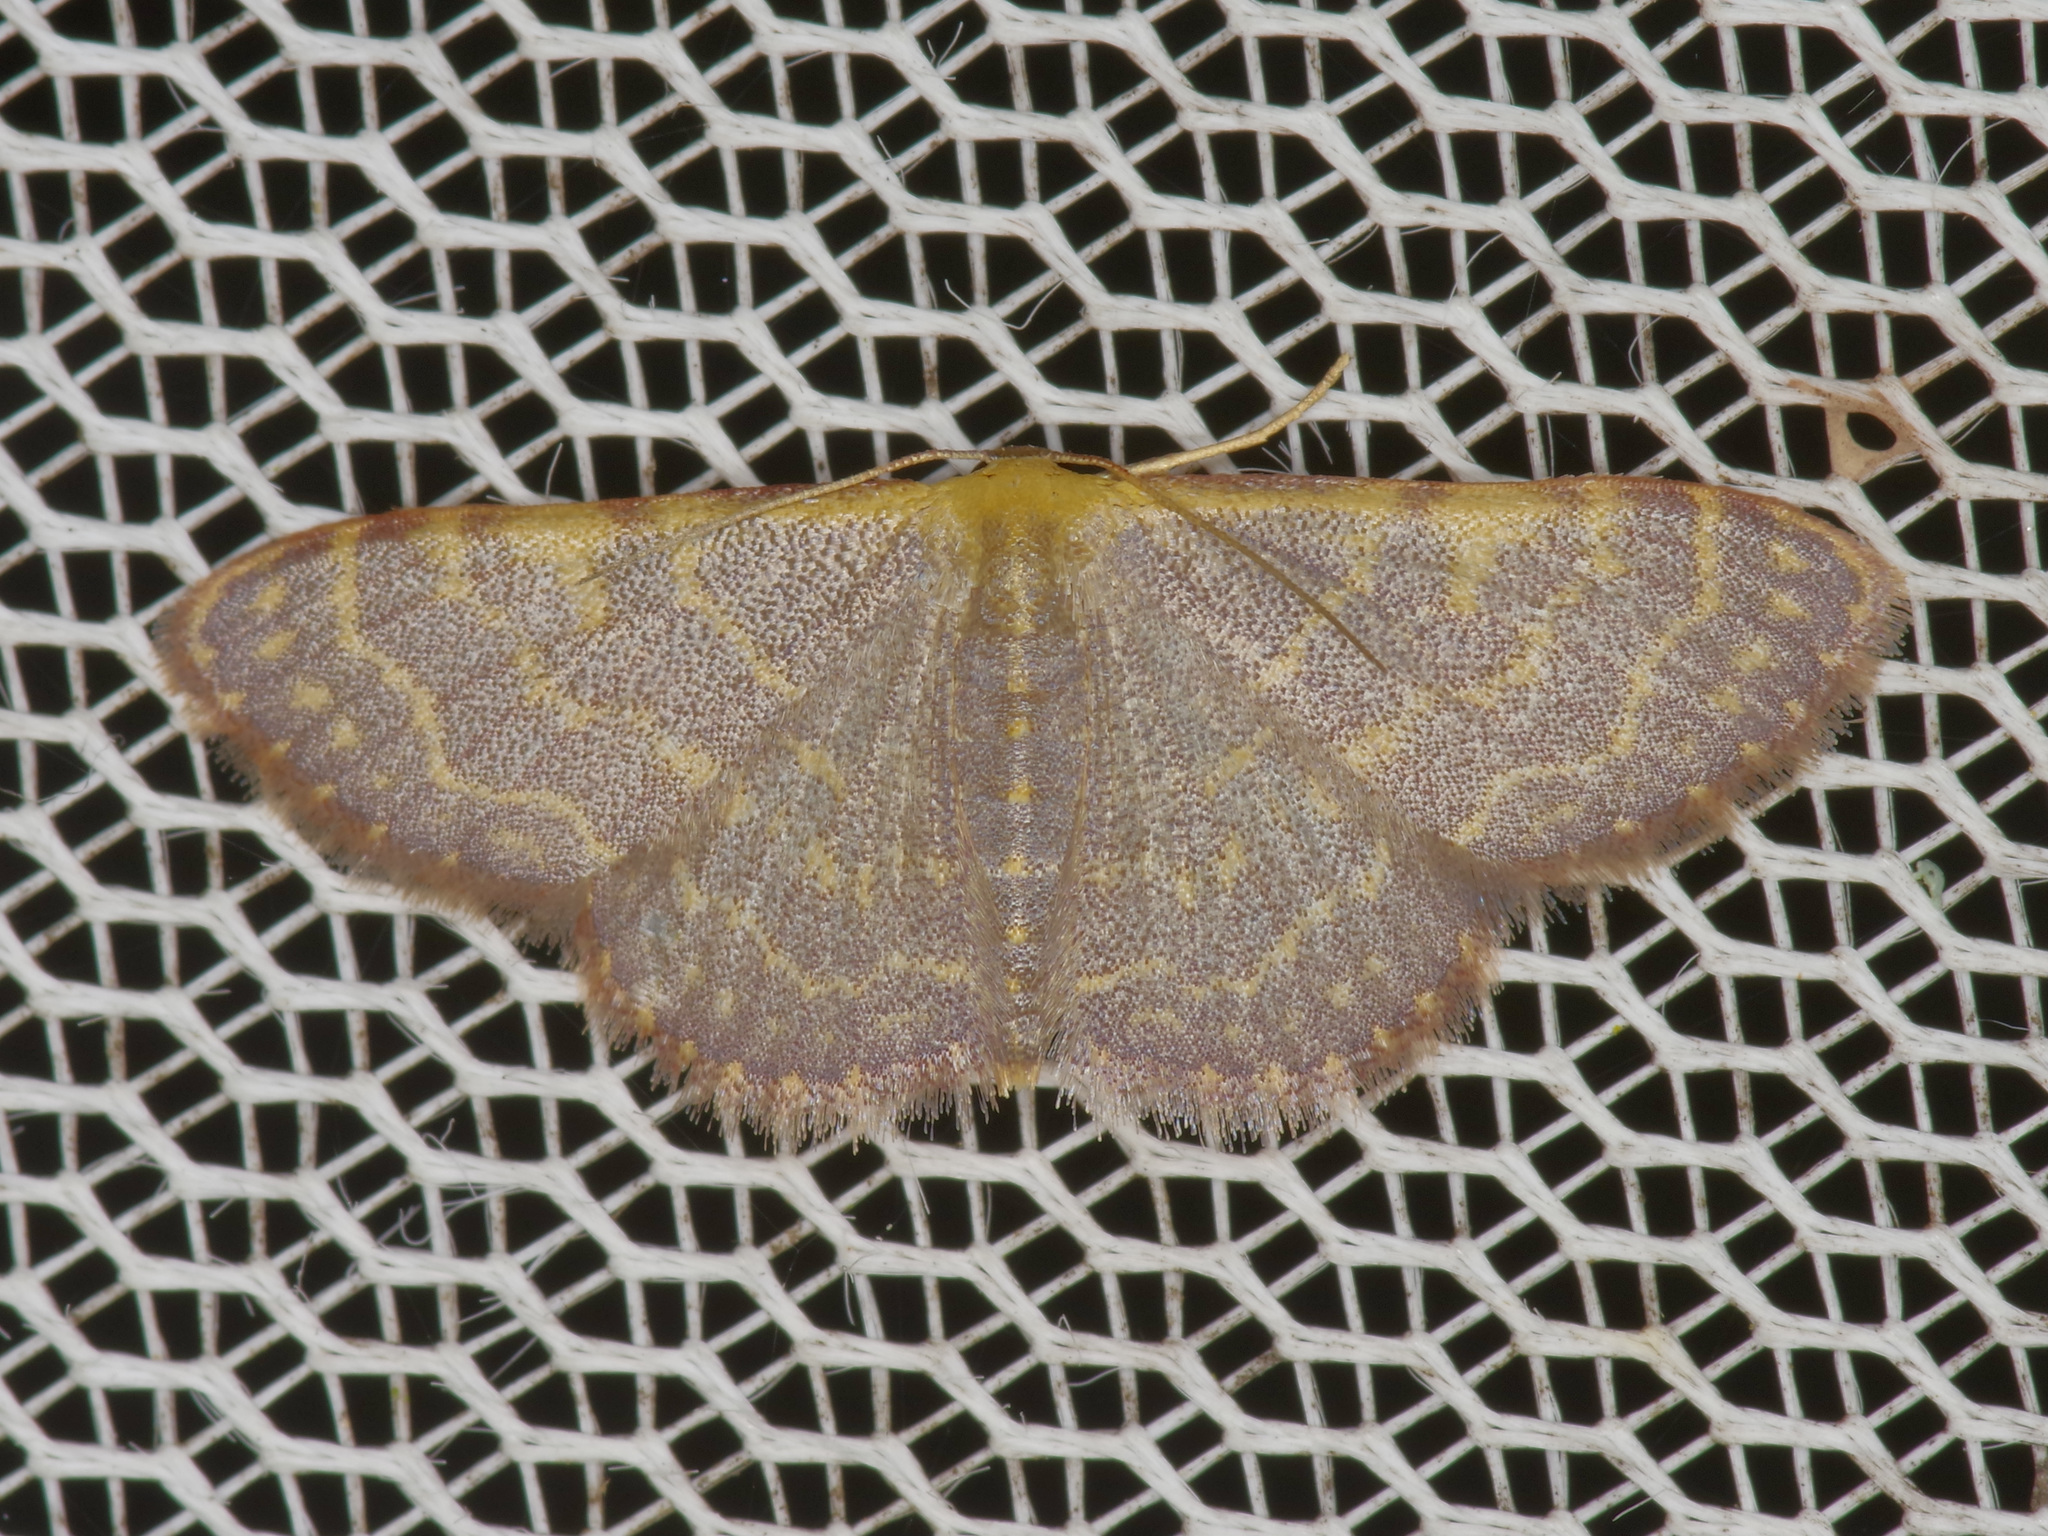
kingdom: Animalia
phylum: Arthropoda
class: Insecta
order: Lepidoptera
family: Geometridae
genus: Leptostales
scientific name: Leptostales pannaria
